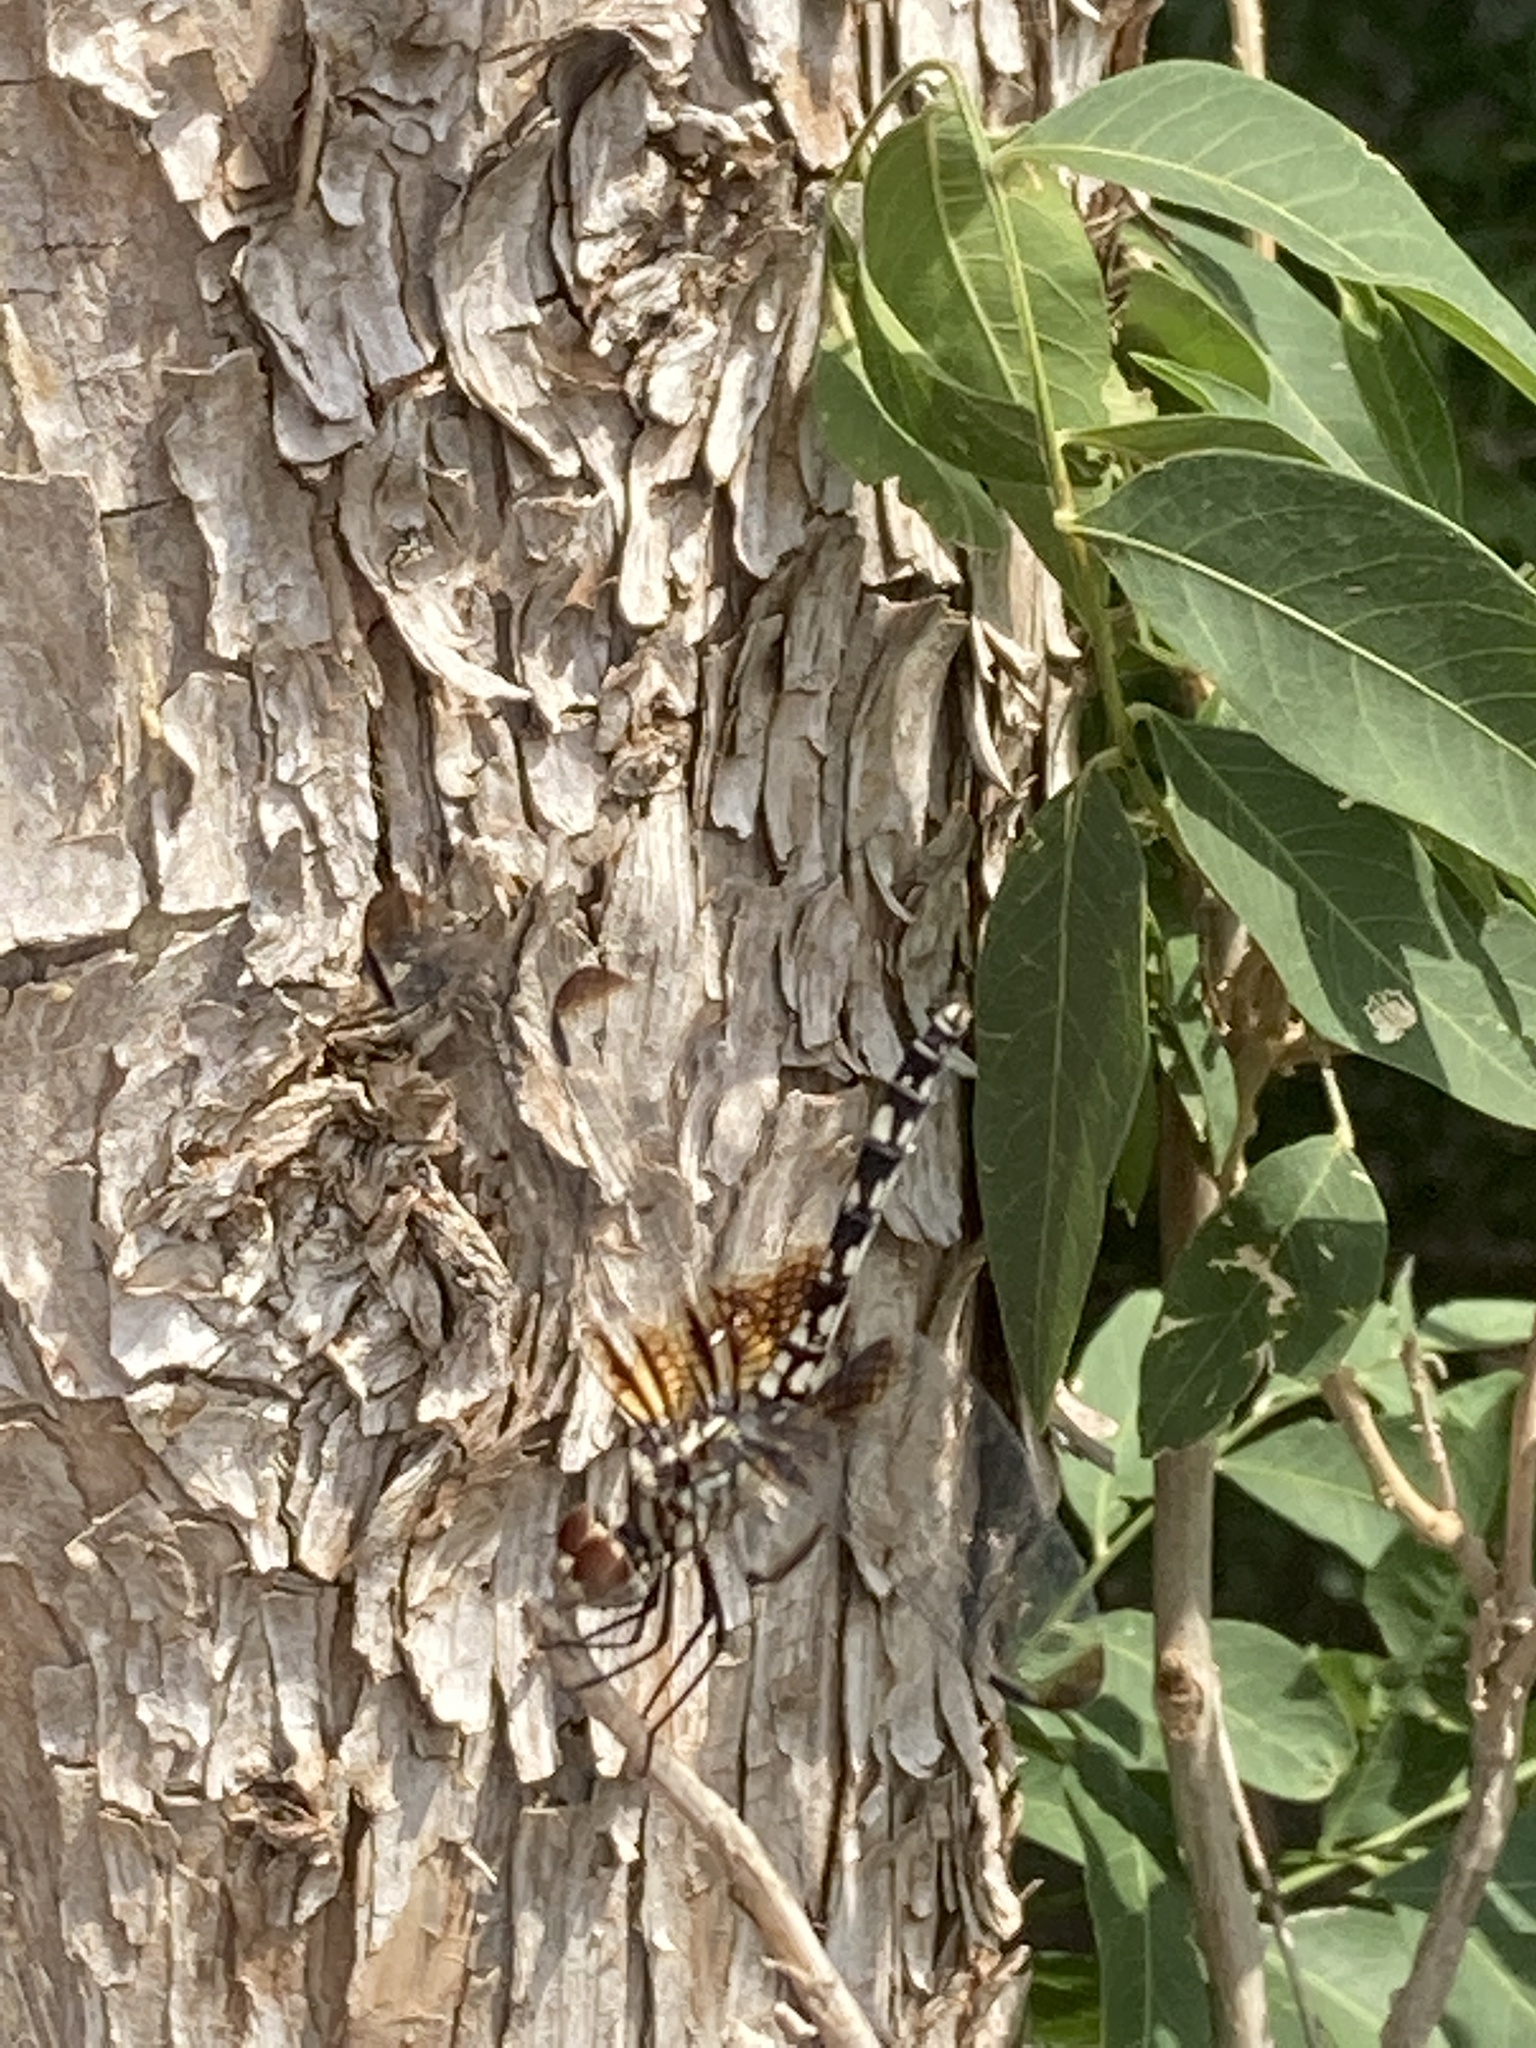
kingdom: Animalia
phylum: Arthropoda
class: Insecta
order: Odonata
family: Libellulidae
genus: Dythemis
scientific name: Dythemis fugax
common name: Checkered setwing
